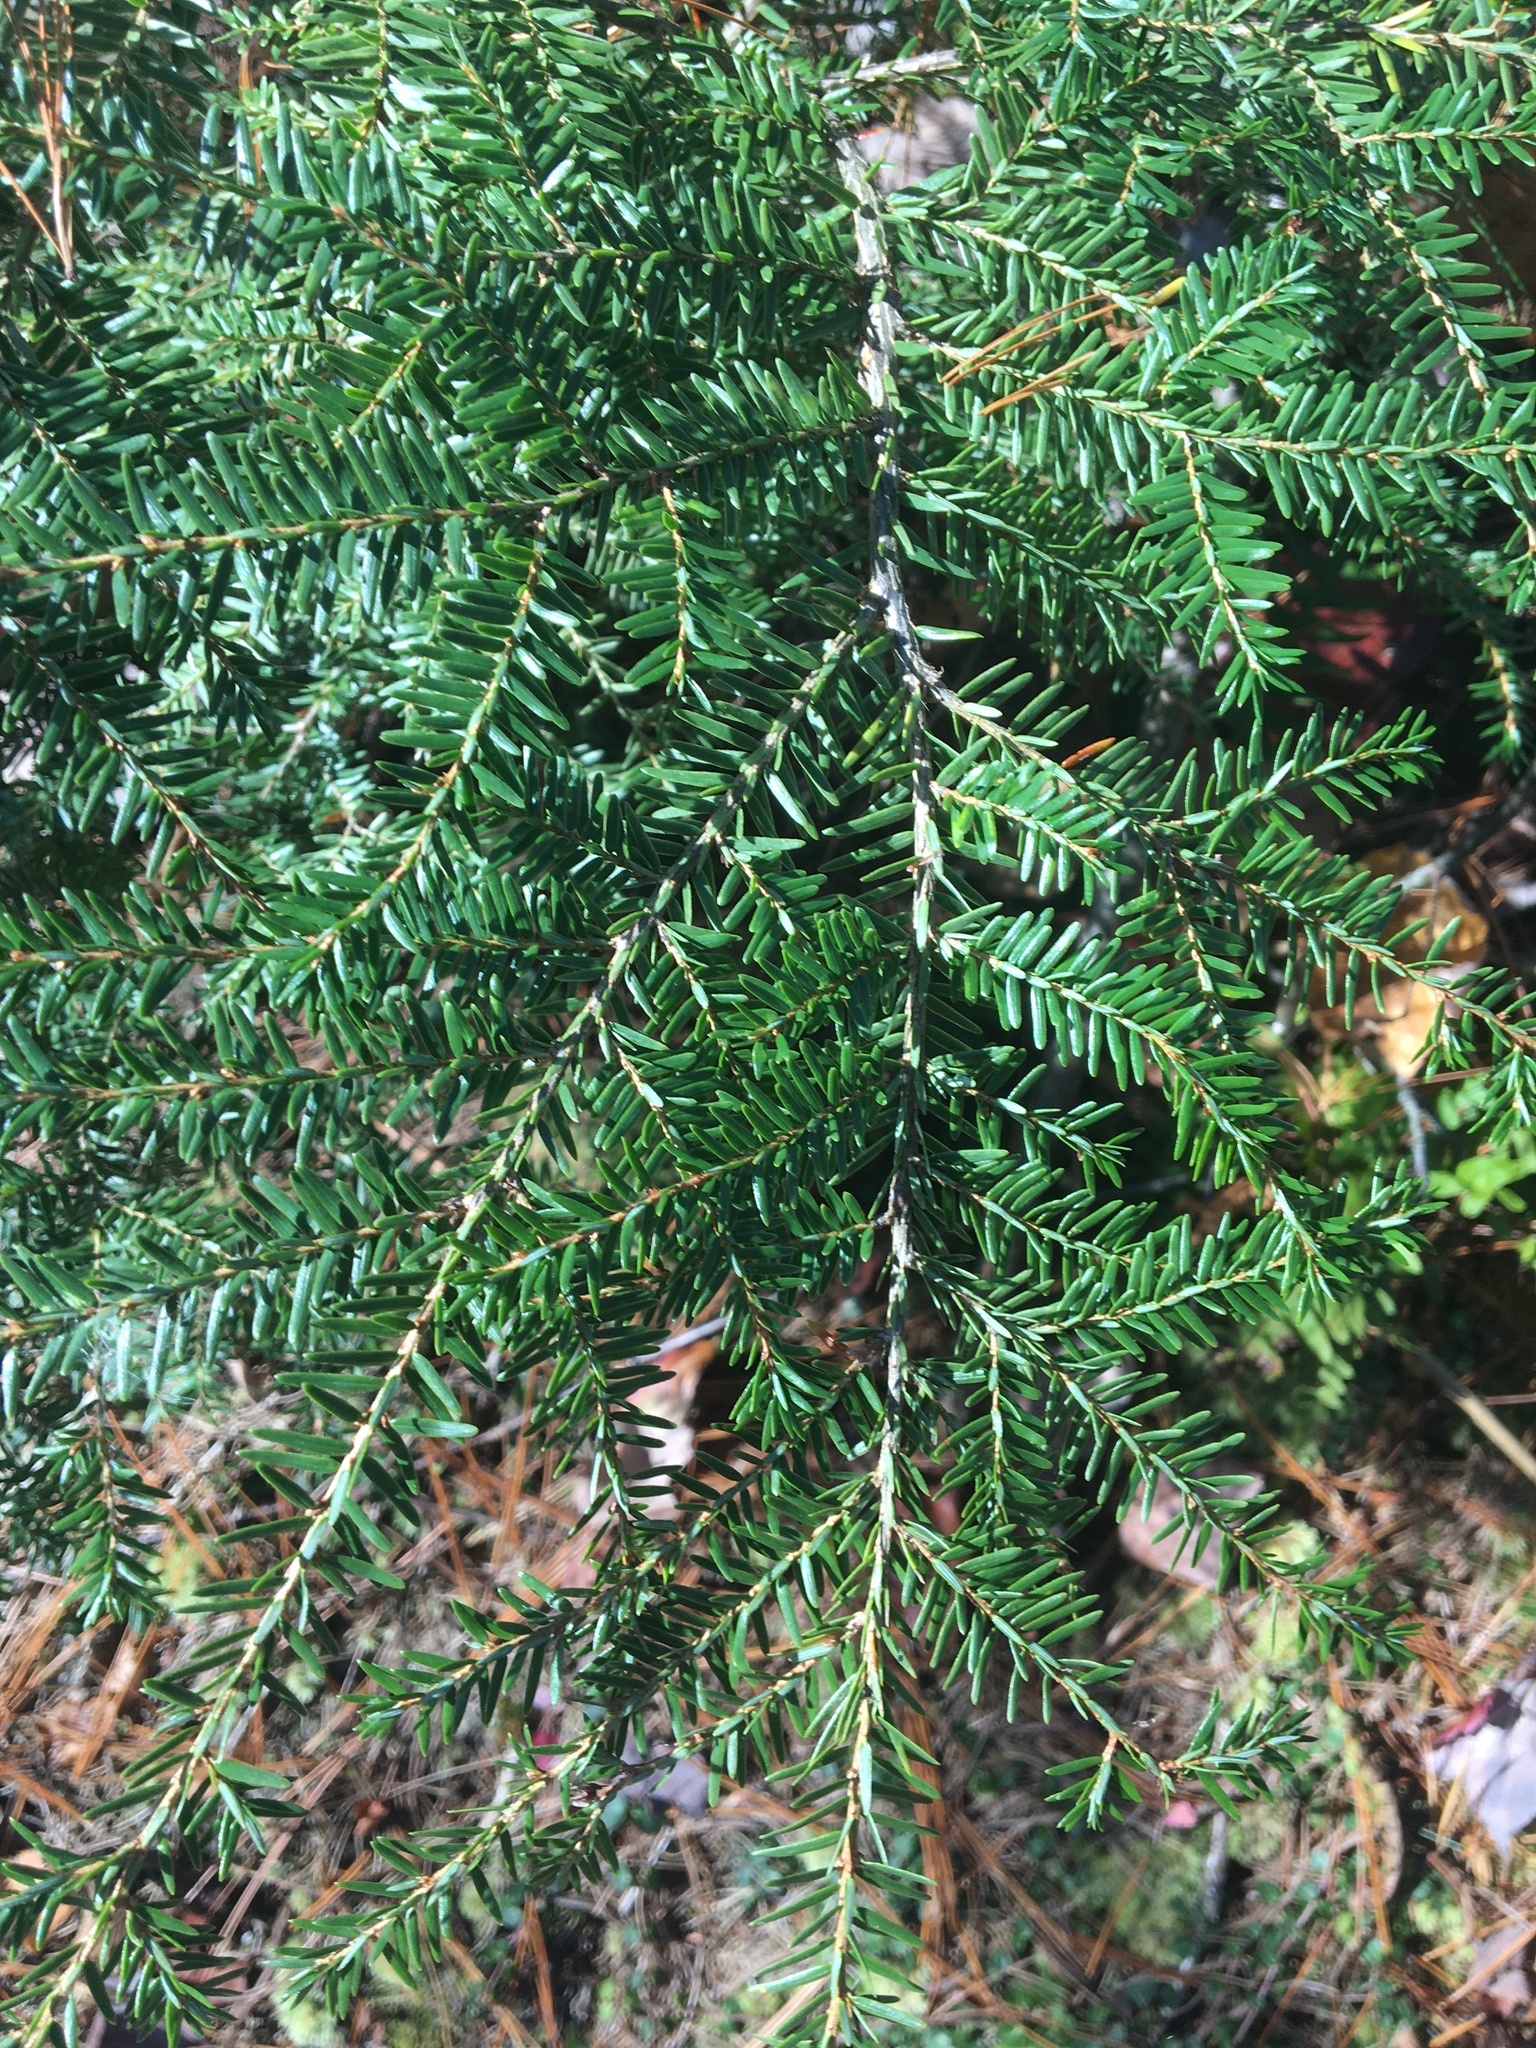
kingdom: Plantae
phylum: Tracheophyta
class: Pinopsida
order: Pinales
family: Pinaceae
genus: Tsuga
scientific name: Tsuga canadensis
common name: Eastern hemlock
